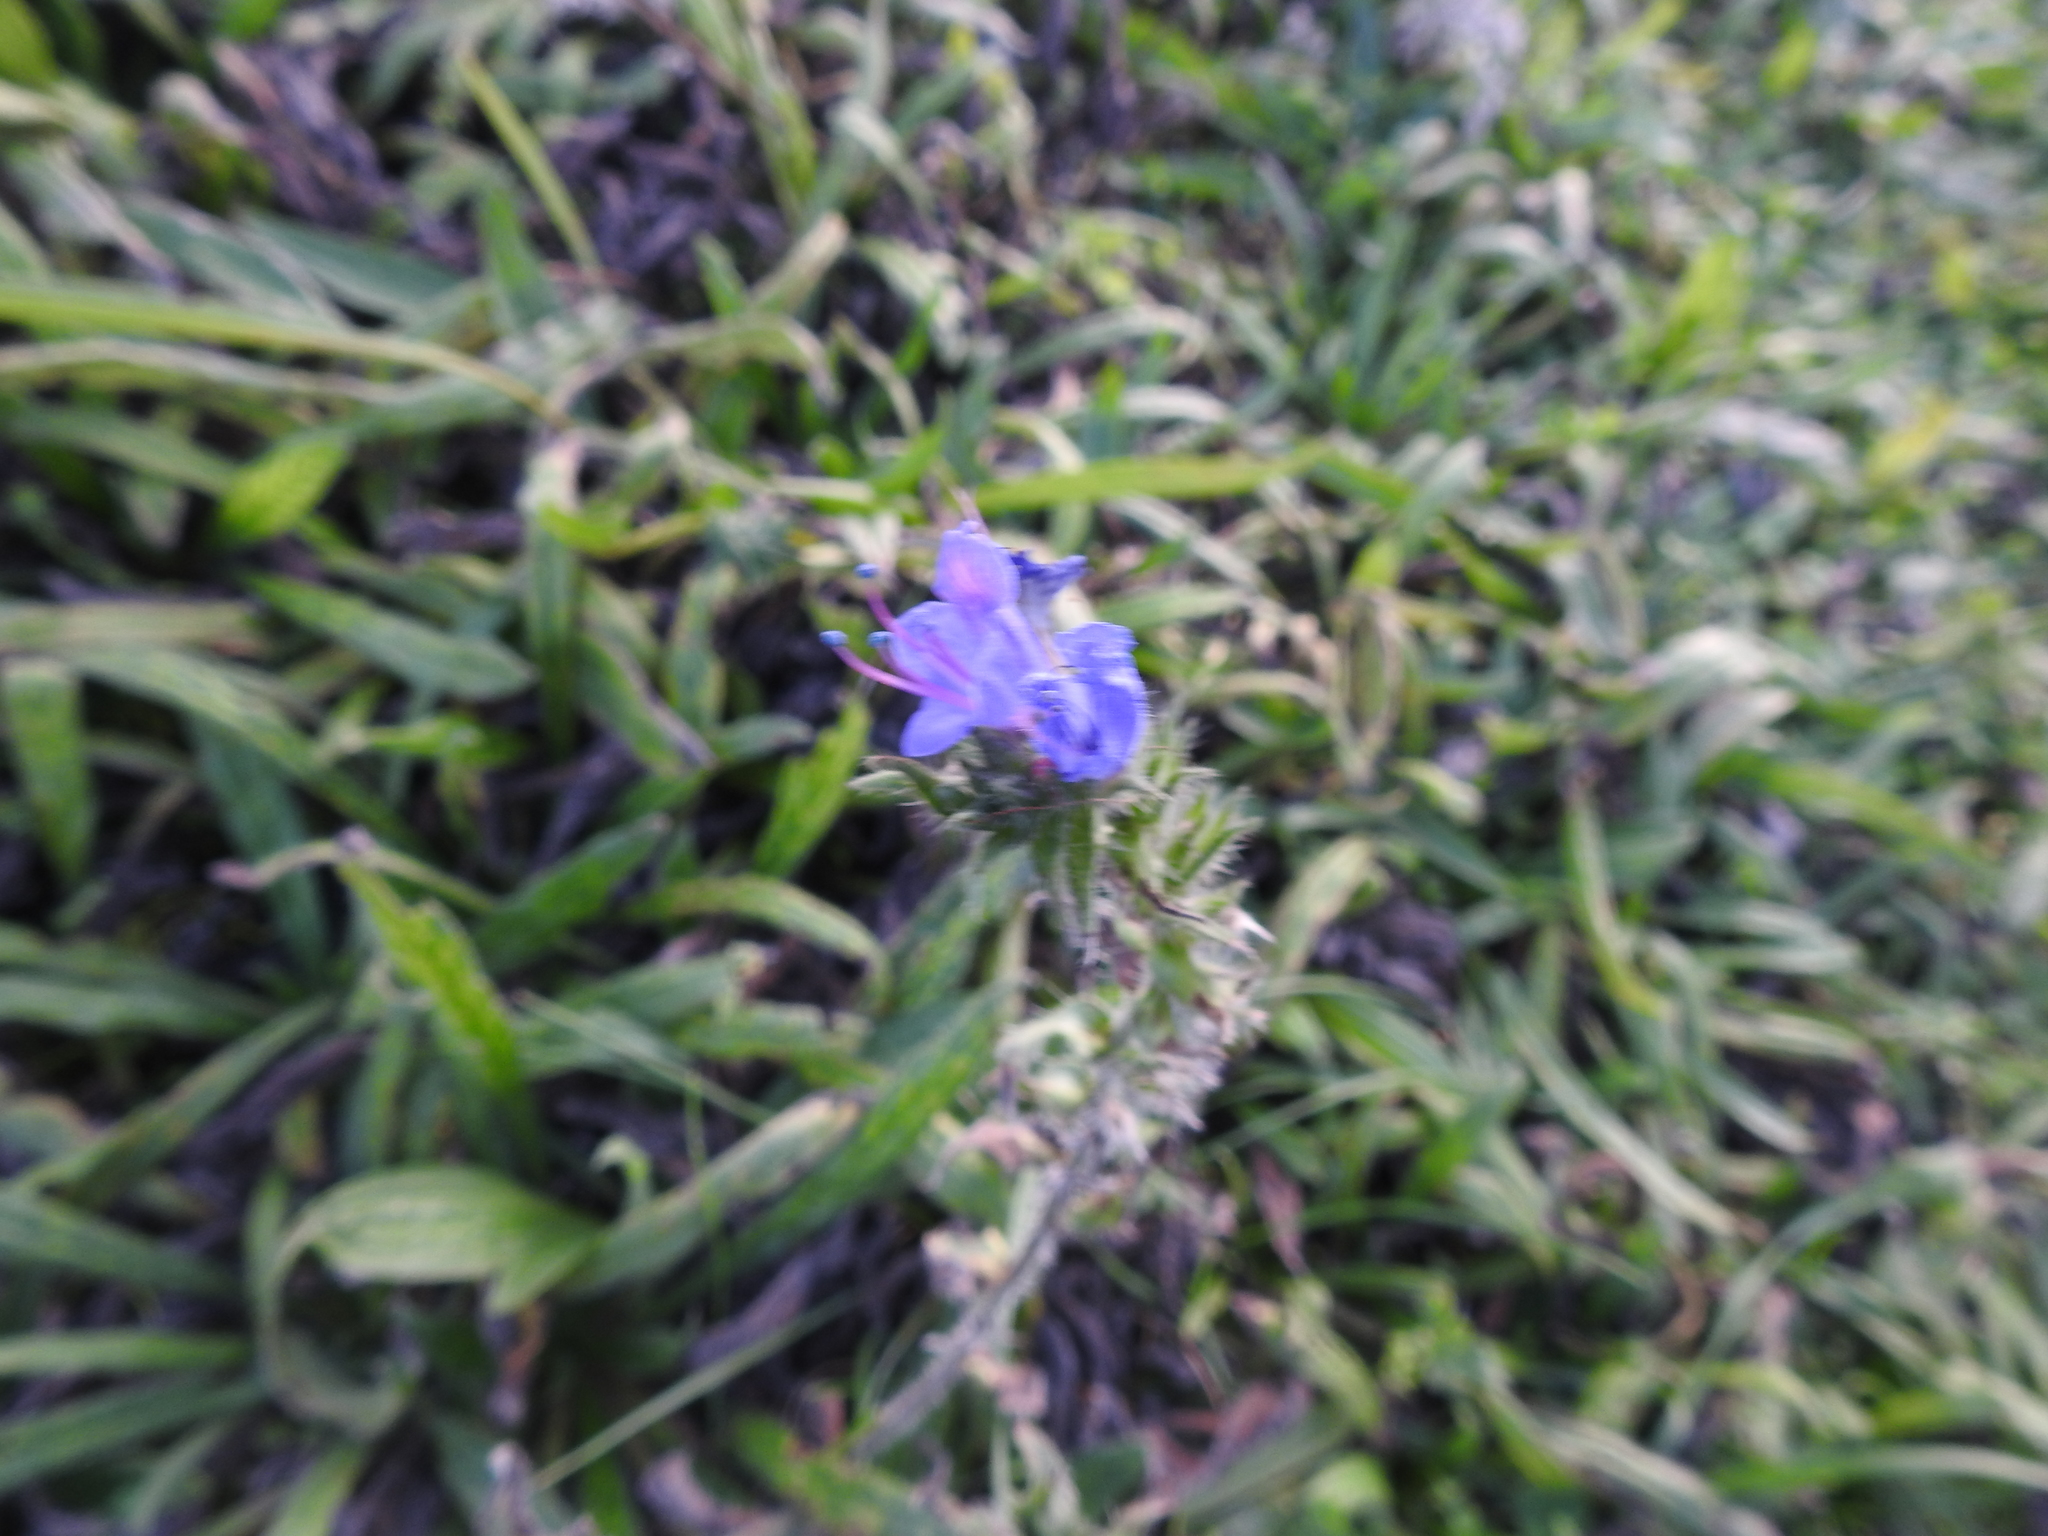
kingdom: Plantae
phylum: Tracheophyta
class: Magnoliopsida
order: Boraginales
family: Boraginaceae
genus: Echium
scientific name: Echium vulgare
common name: Common viper's bugloss
